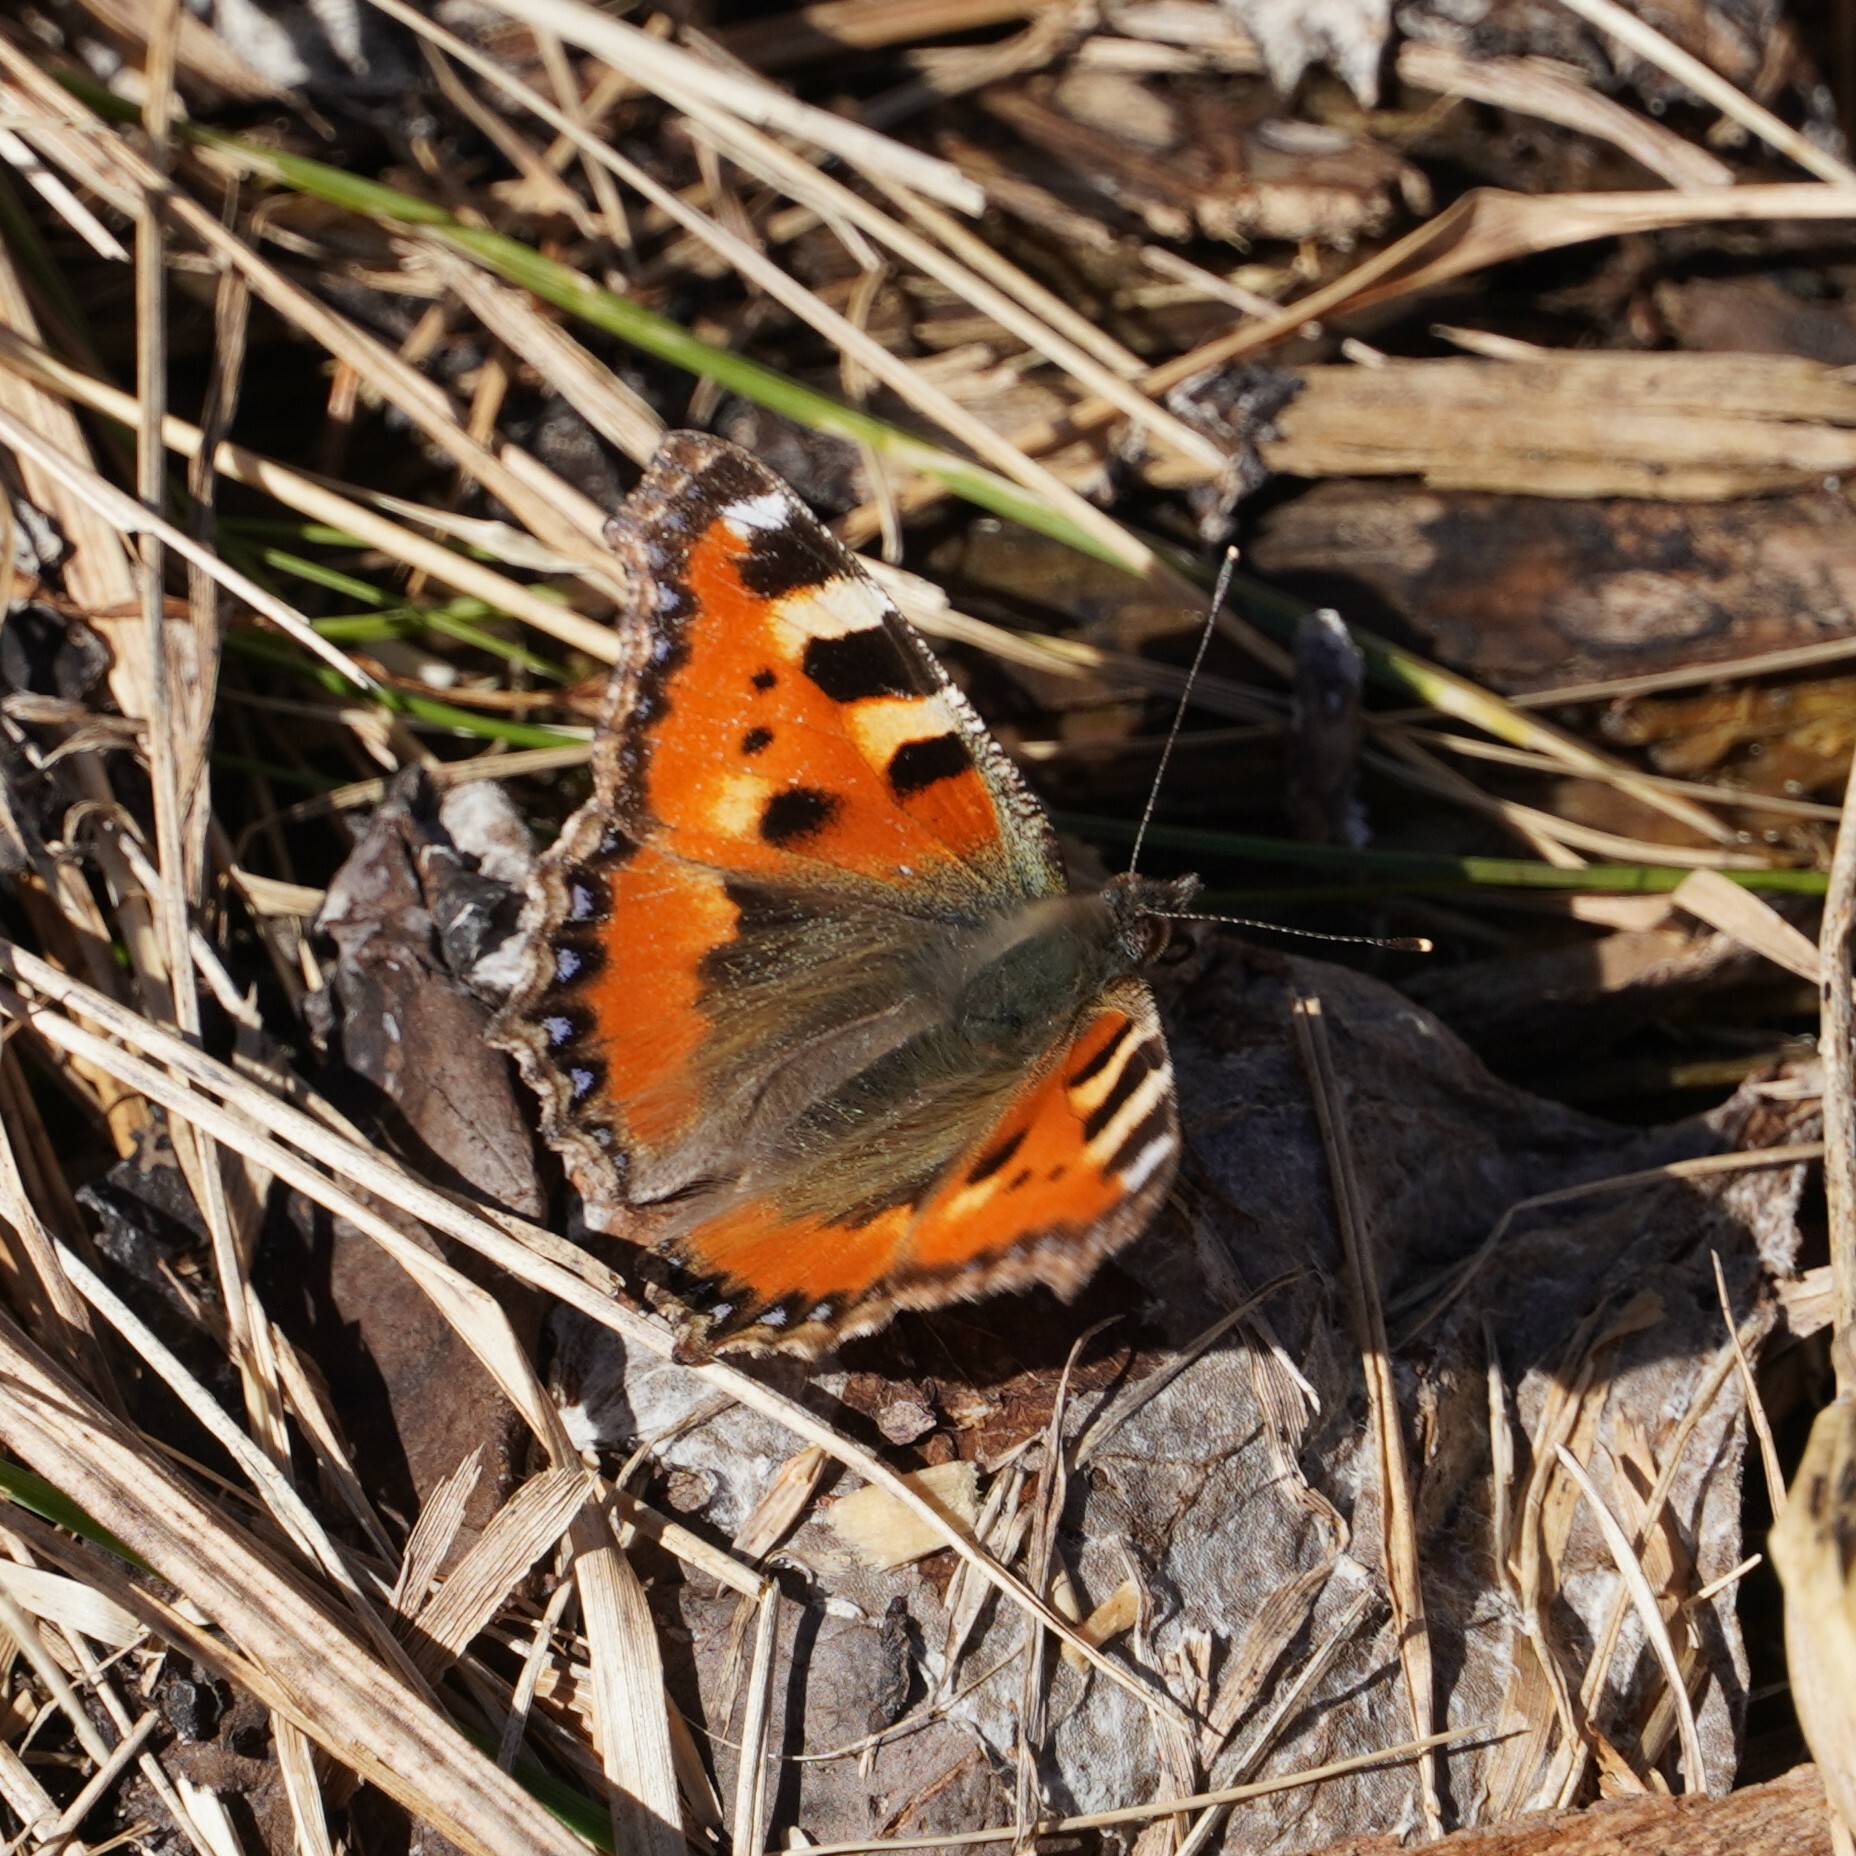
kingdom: Animalia
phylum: Arthropoda
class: Insecta
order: Lepidoptera
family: Nymphalidae
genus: Aglais
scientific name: Aglais urticae
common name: Small tortoiseshell
